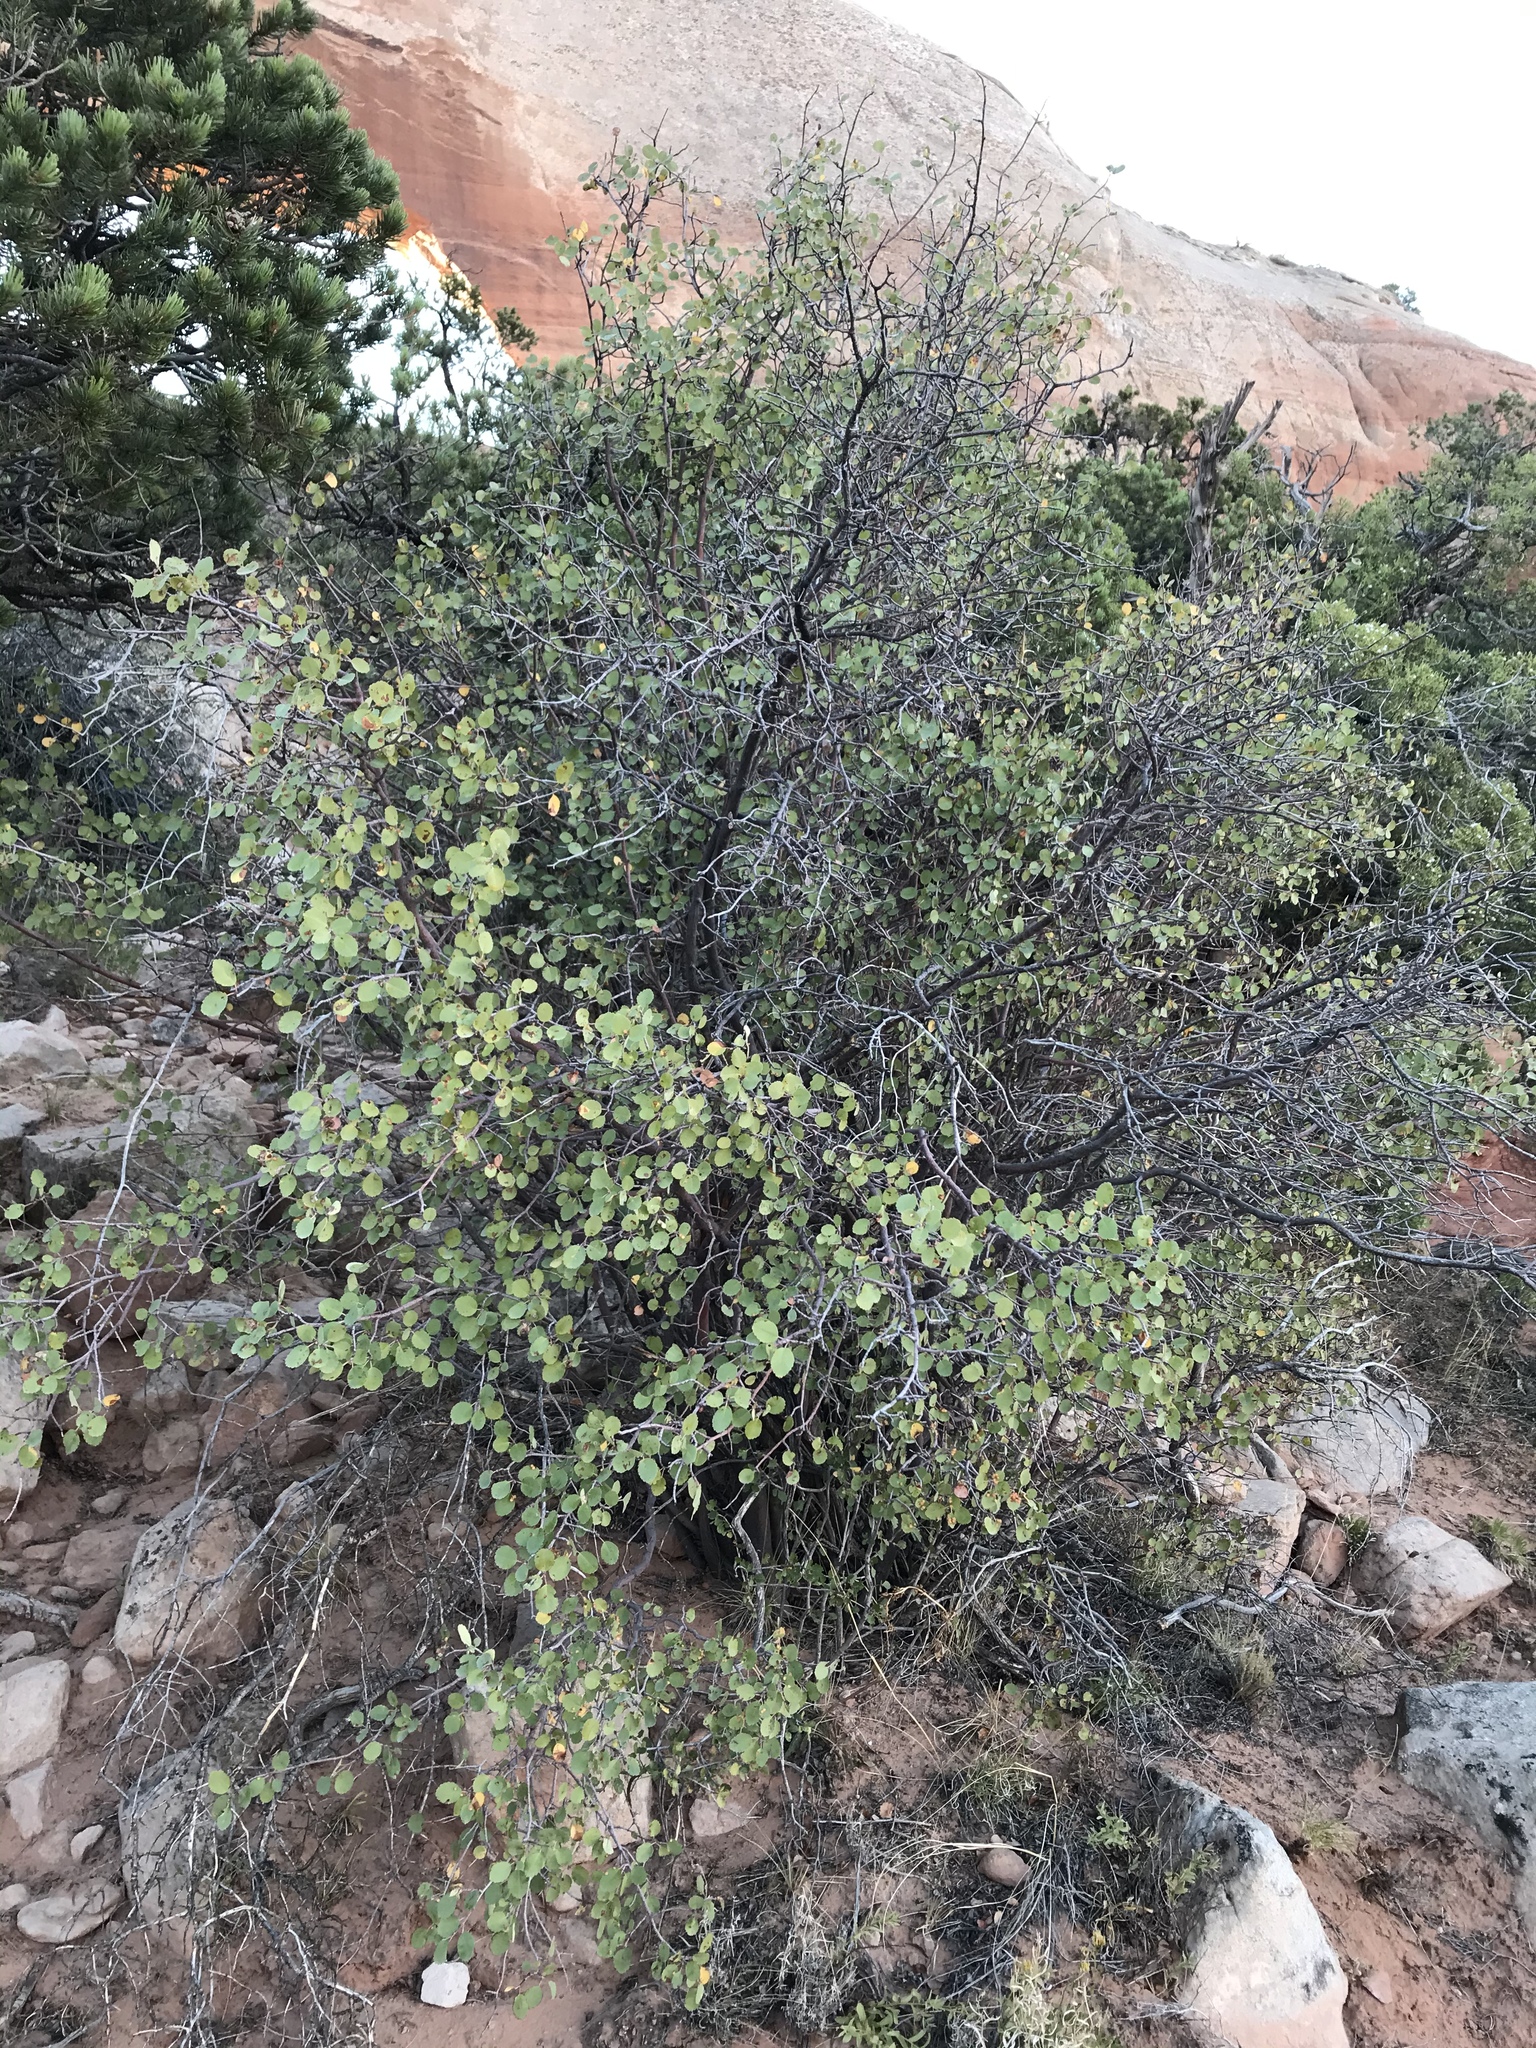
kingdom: Plantae
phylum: Tracheophyta
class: Magnoliopsida
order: Rosales
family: Rosaceae
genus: Amelanchier
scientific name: Amelanchier utahensis
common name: Utah serviceberry
